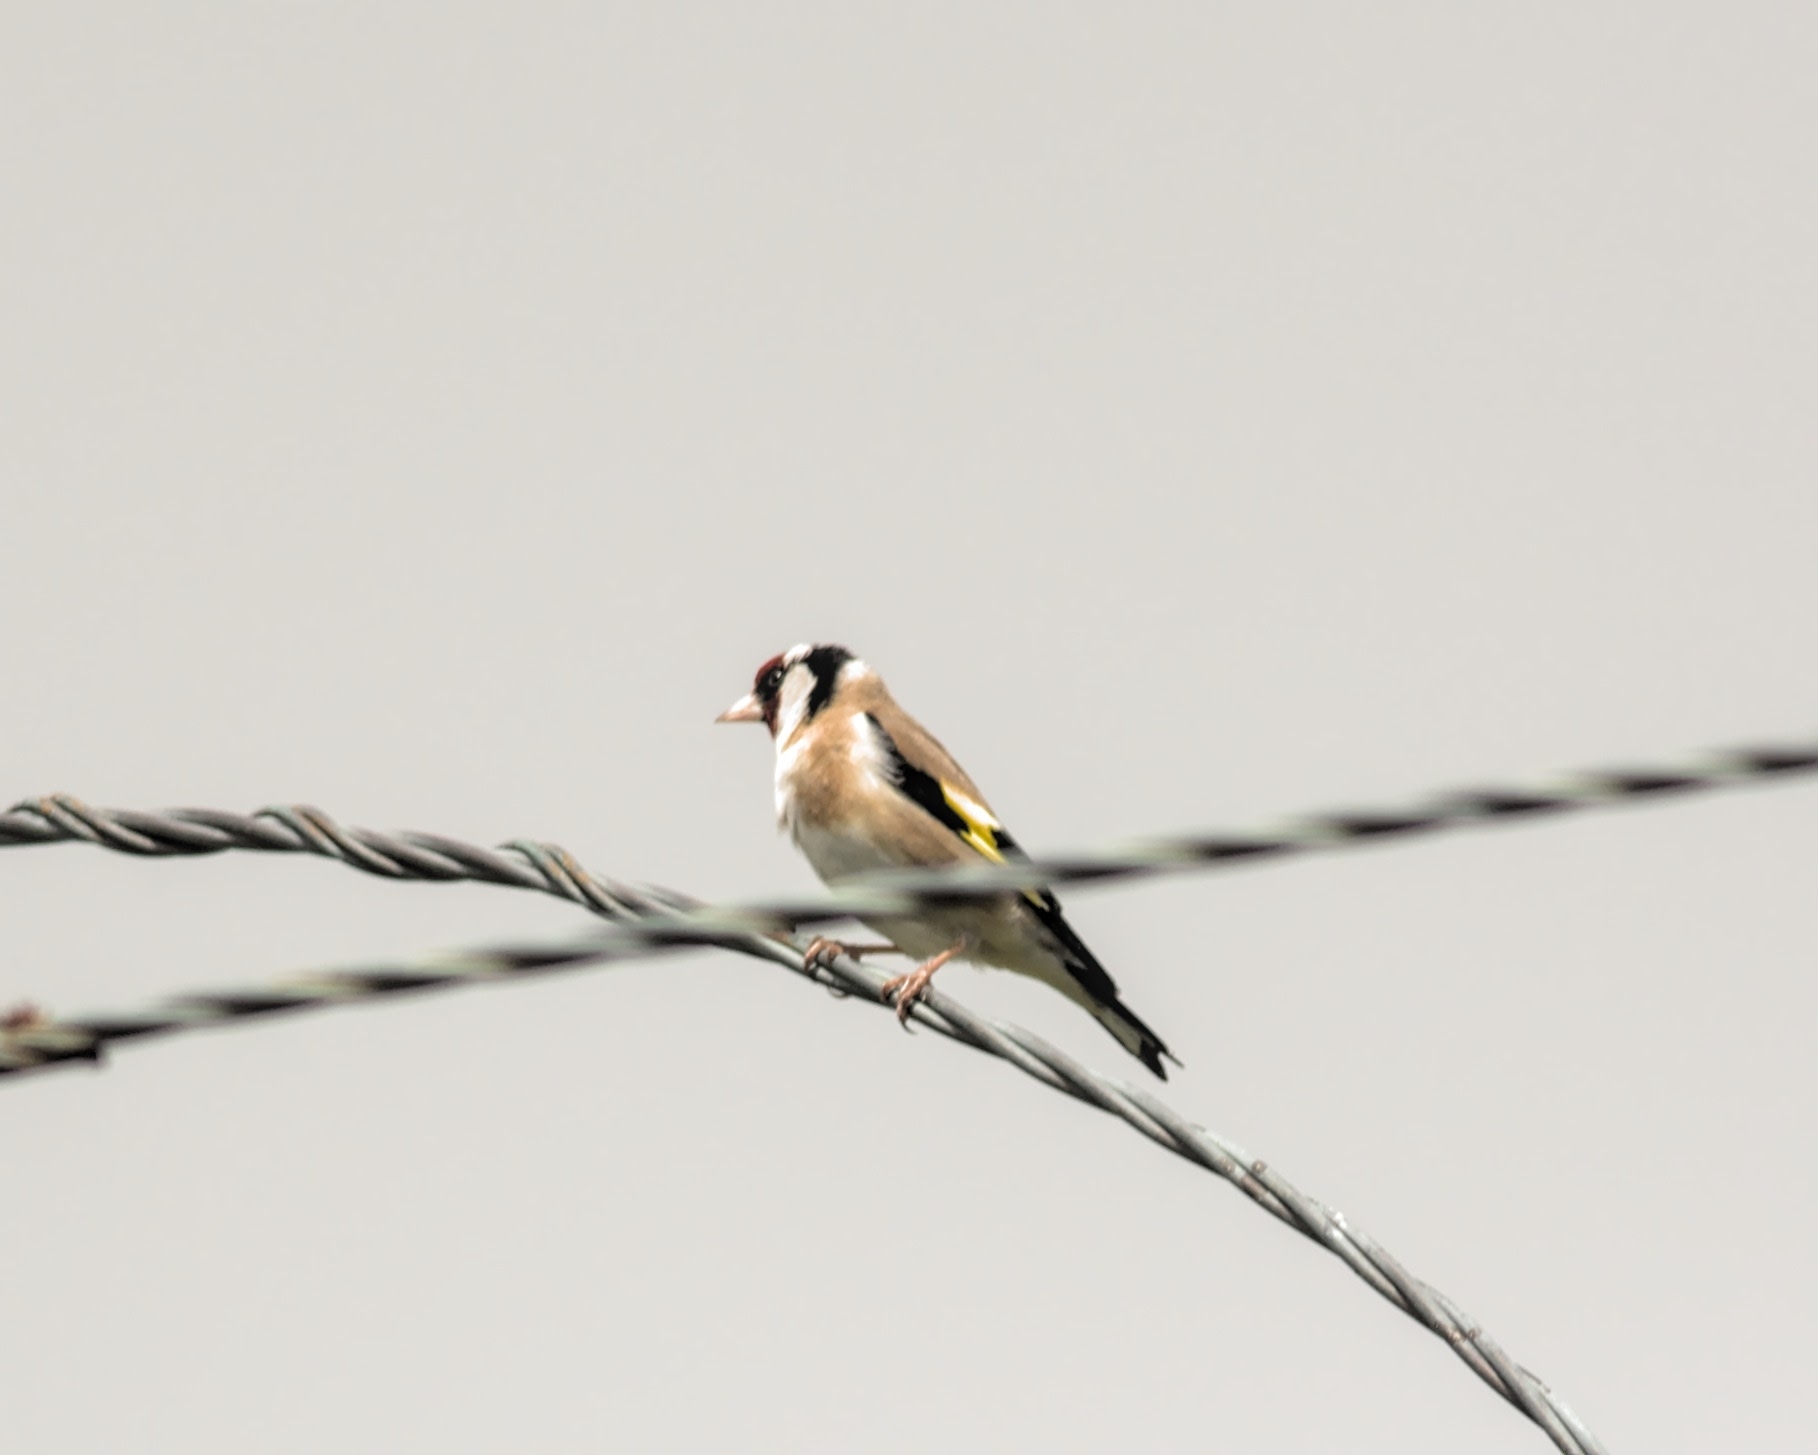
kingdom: Animalia
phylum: Chordata
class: Aves
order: Passeriformes
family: Fringillidae
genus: Carduelis
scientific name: Carduelis carduelis
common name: European goldfinch
